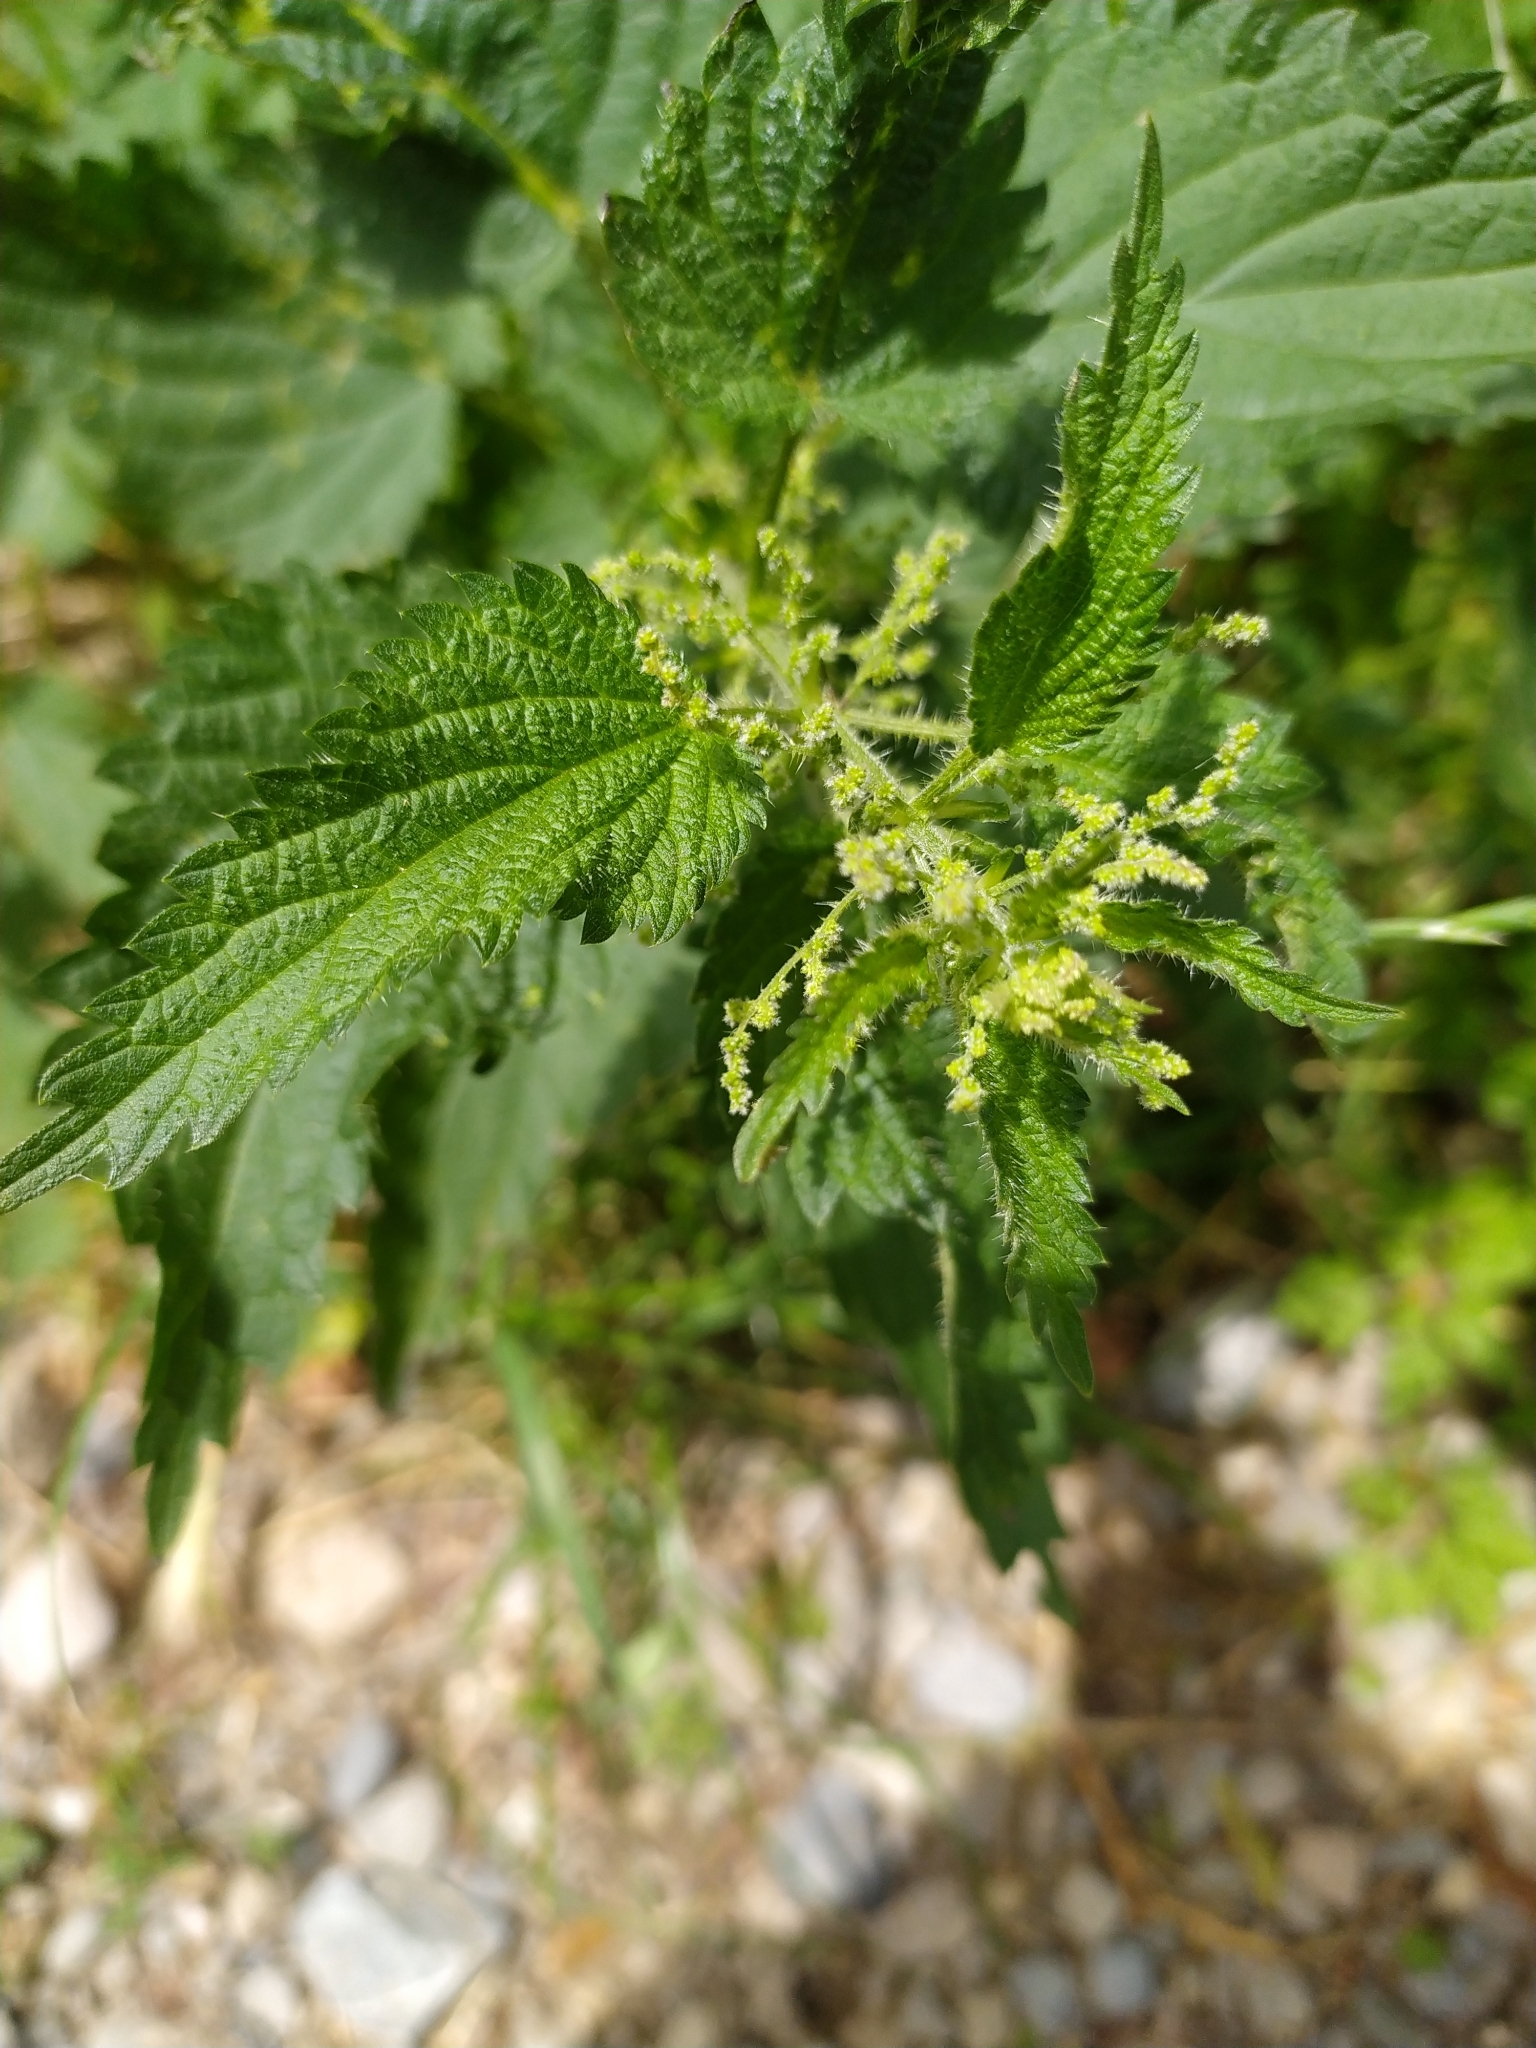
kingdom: Plantae
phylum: Tracheophyta
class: Magnoliopsida
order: Rosales
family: Urticaceae
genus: Urtica
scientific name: Urtica dioica
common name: Common nettle
